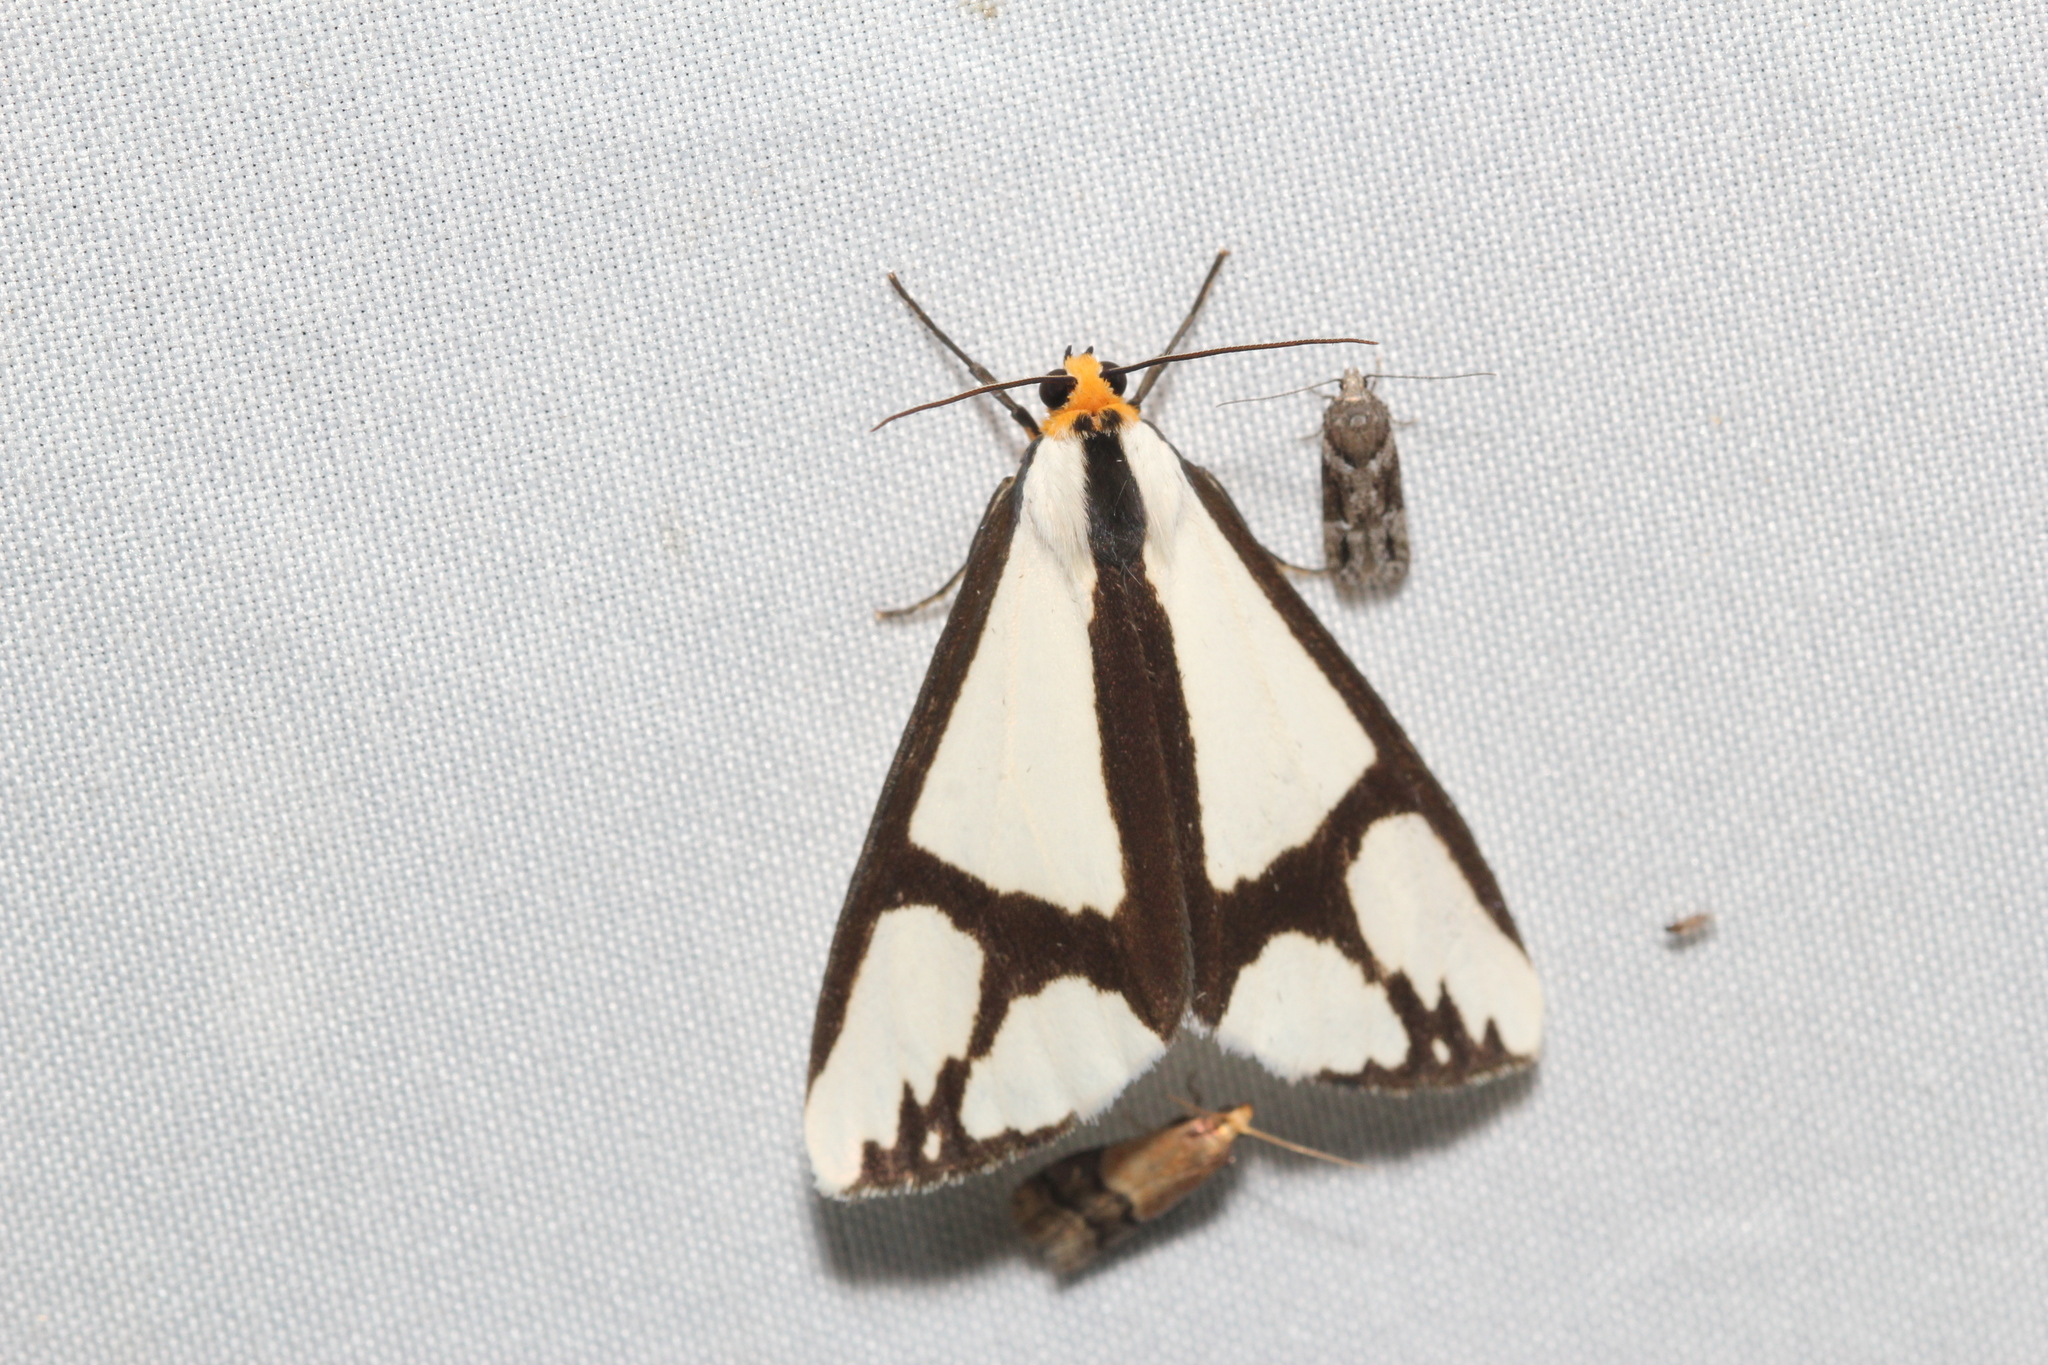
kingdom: Animalia
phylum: Arthropoda
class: Insecta
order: Lepidoptera
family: Erebidae
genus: Haploa
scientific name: Haploa contigua
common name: Neighbor moth
